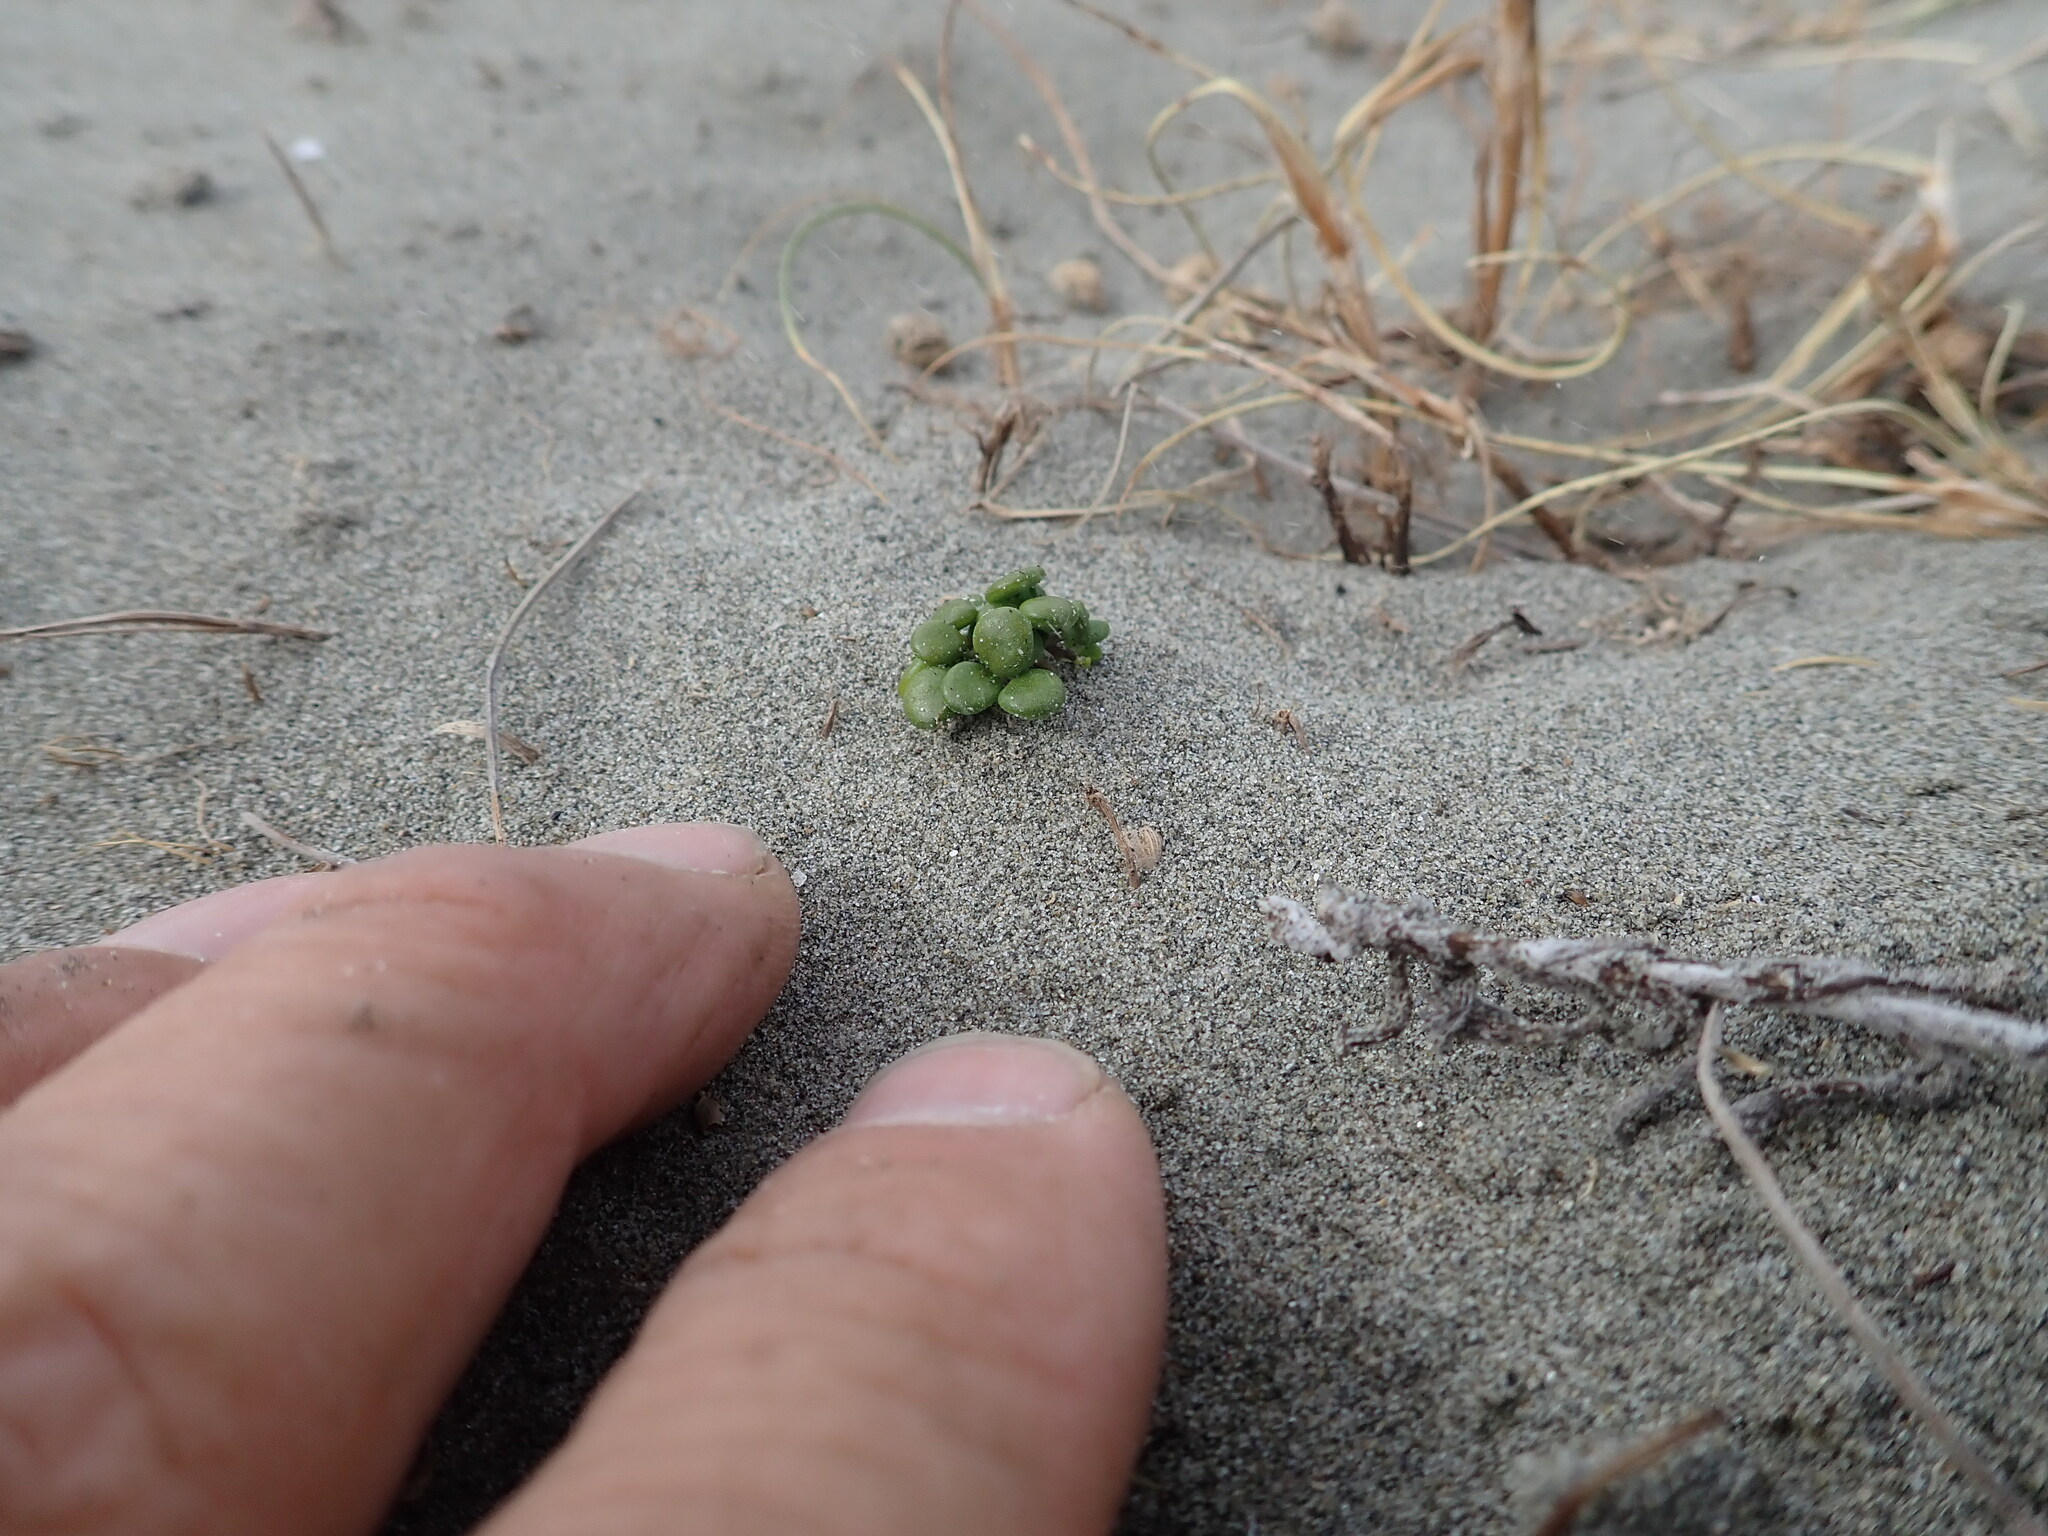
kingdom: Plantae
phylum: Tracheophyta
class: Magnoliopsida
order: Asterales
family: Goodeniaceae
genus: Goodenia
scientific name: Goodenia heenanii
